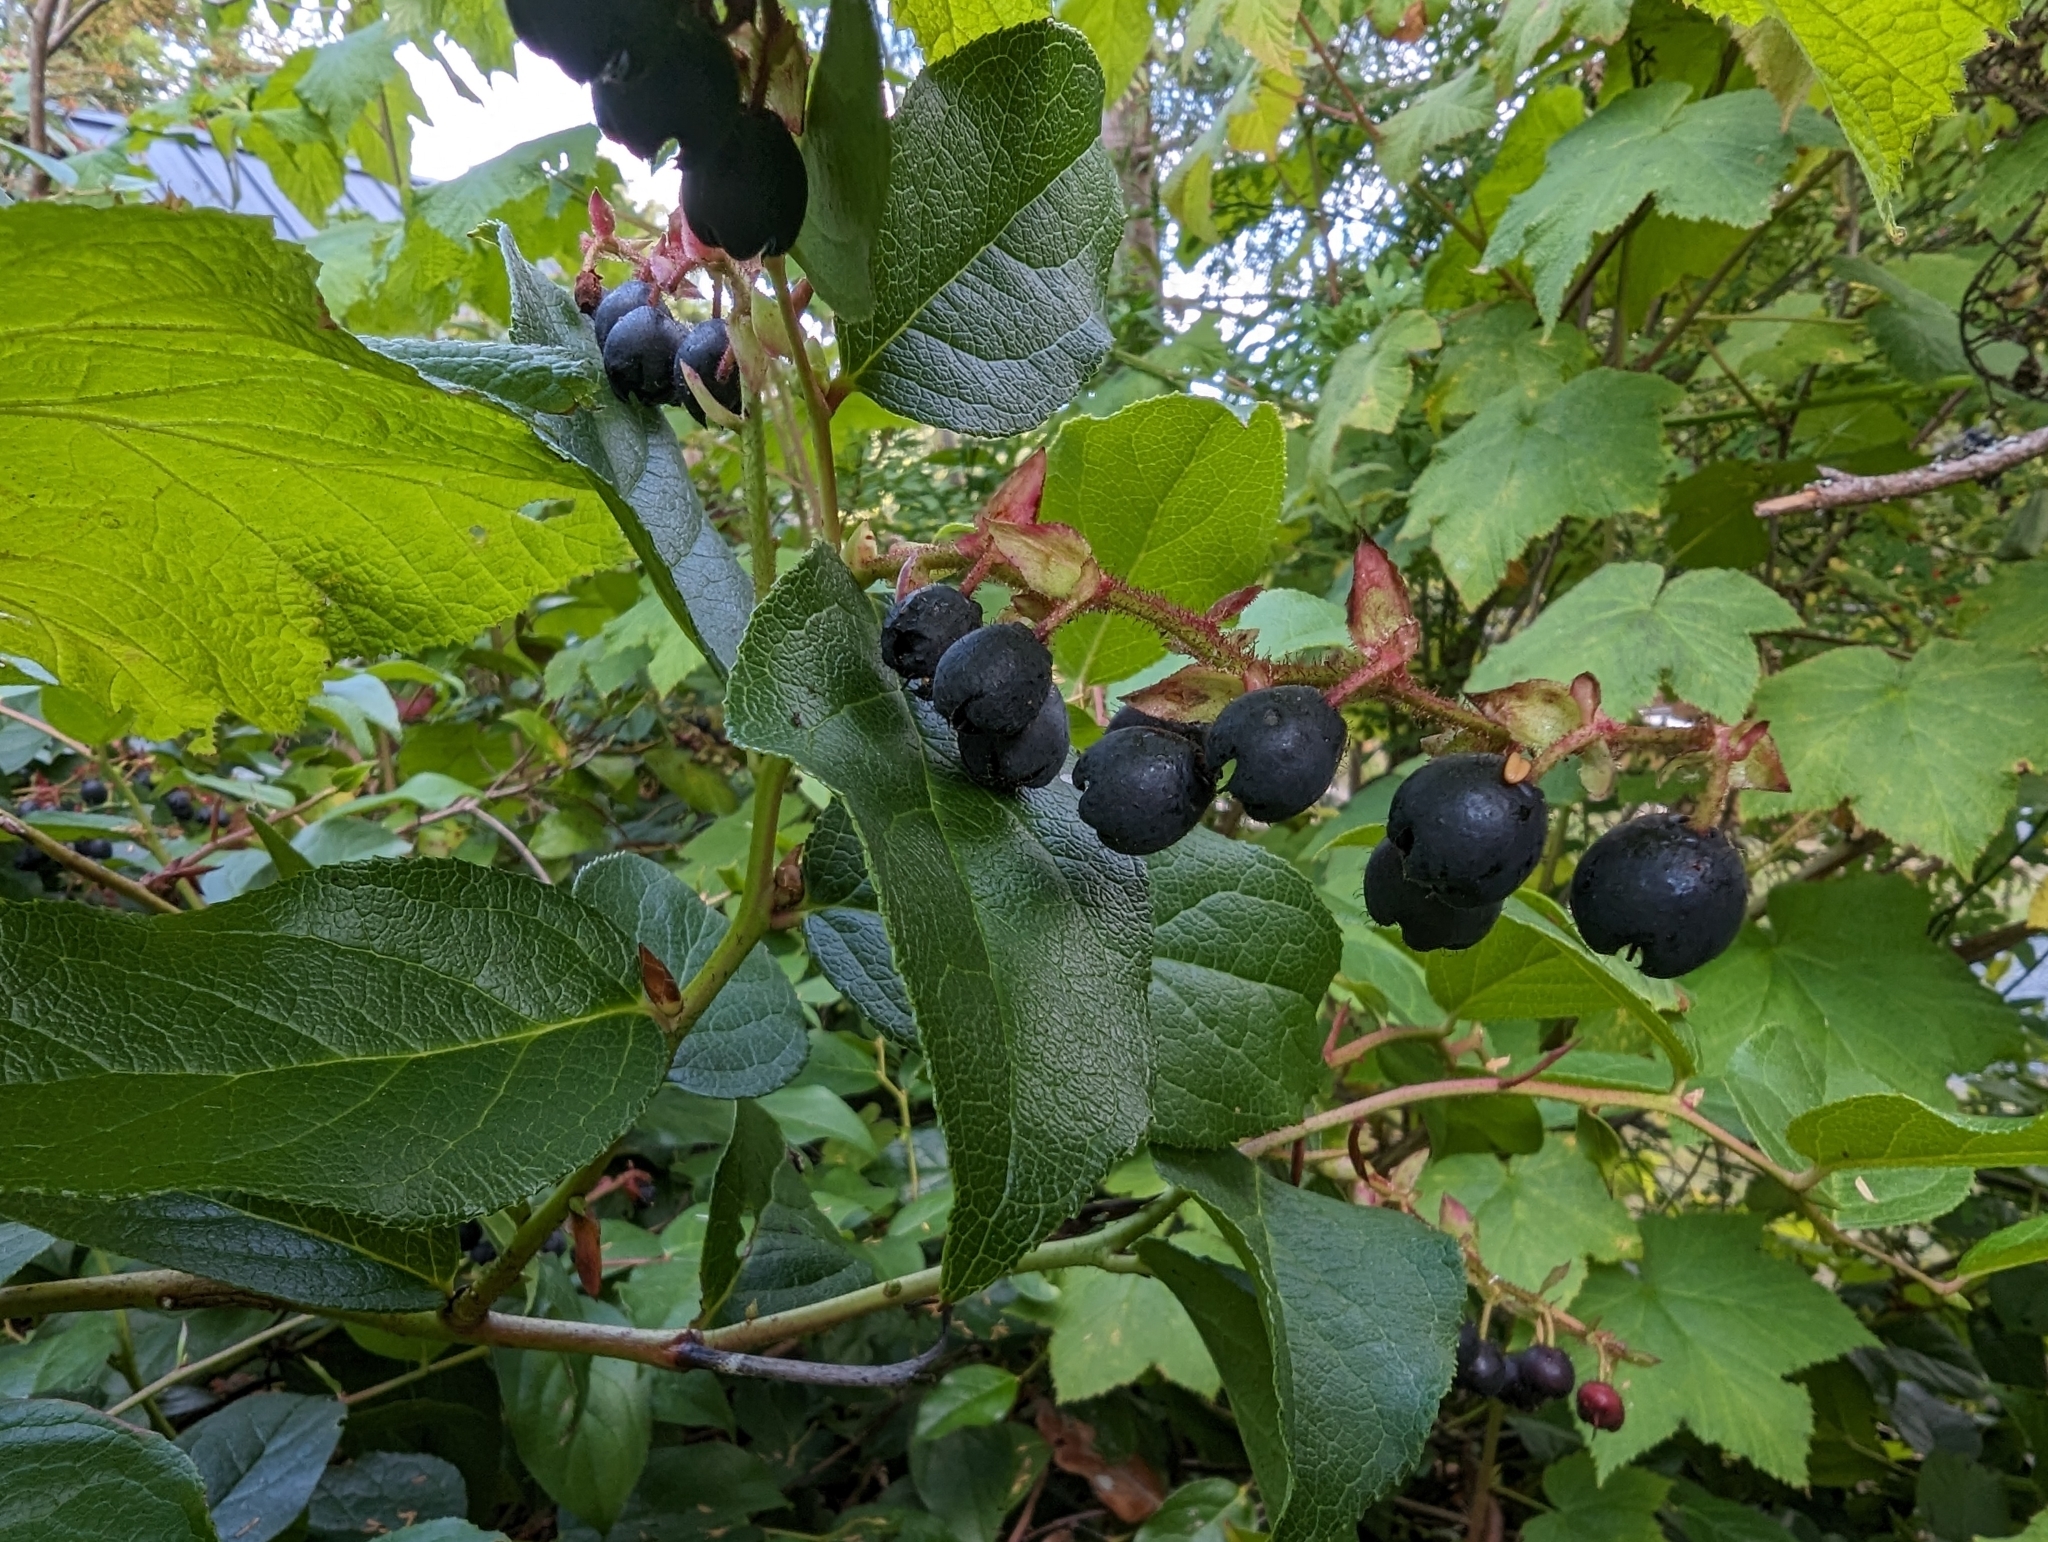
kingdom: Plantae
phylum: Tracheophyta
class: Magnoliopsida
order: Ericales
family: Ericaceae
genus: Gaultheria
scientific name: Gaultheria shallon
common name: Shallon
